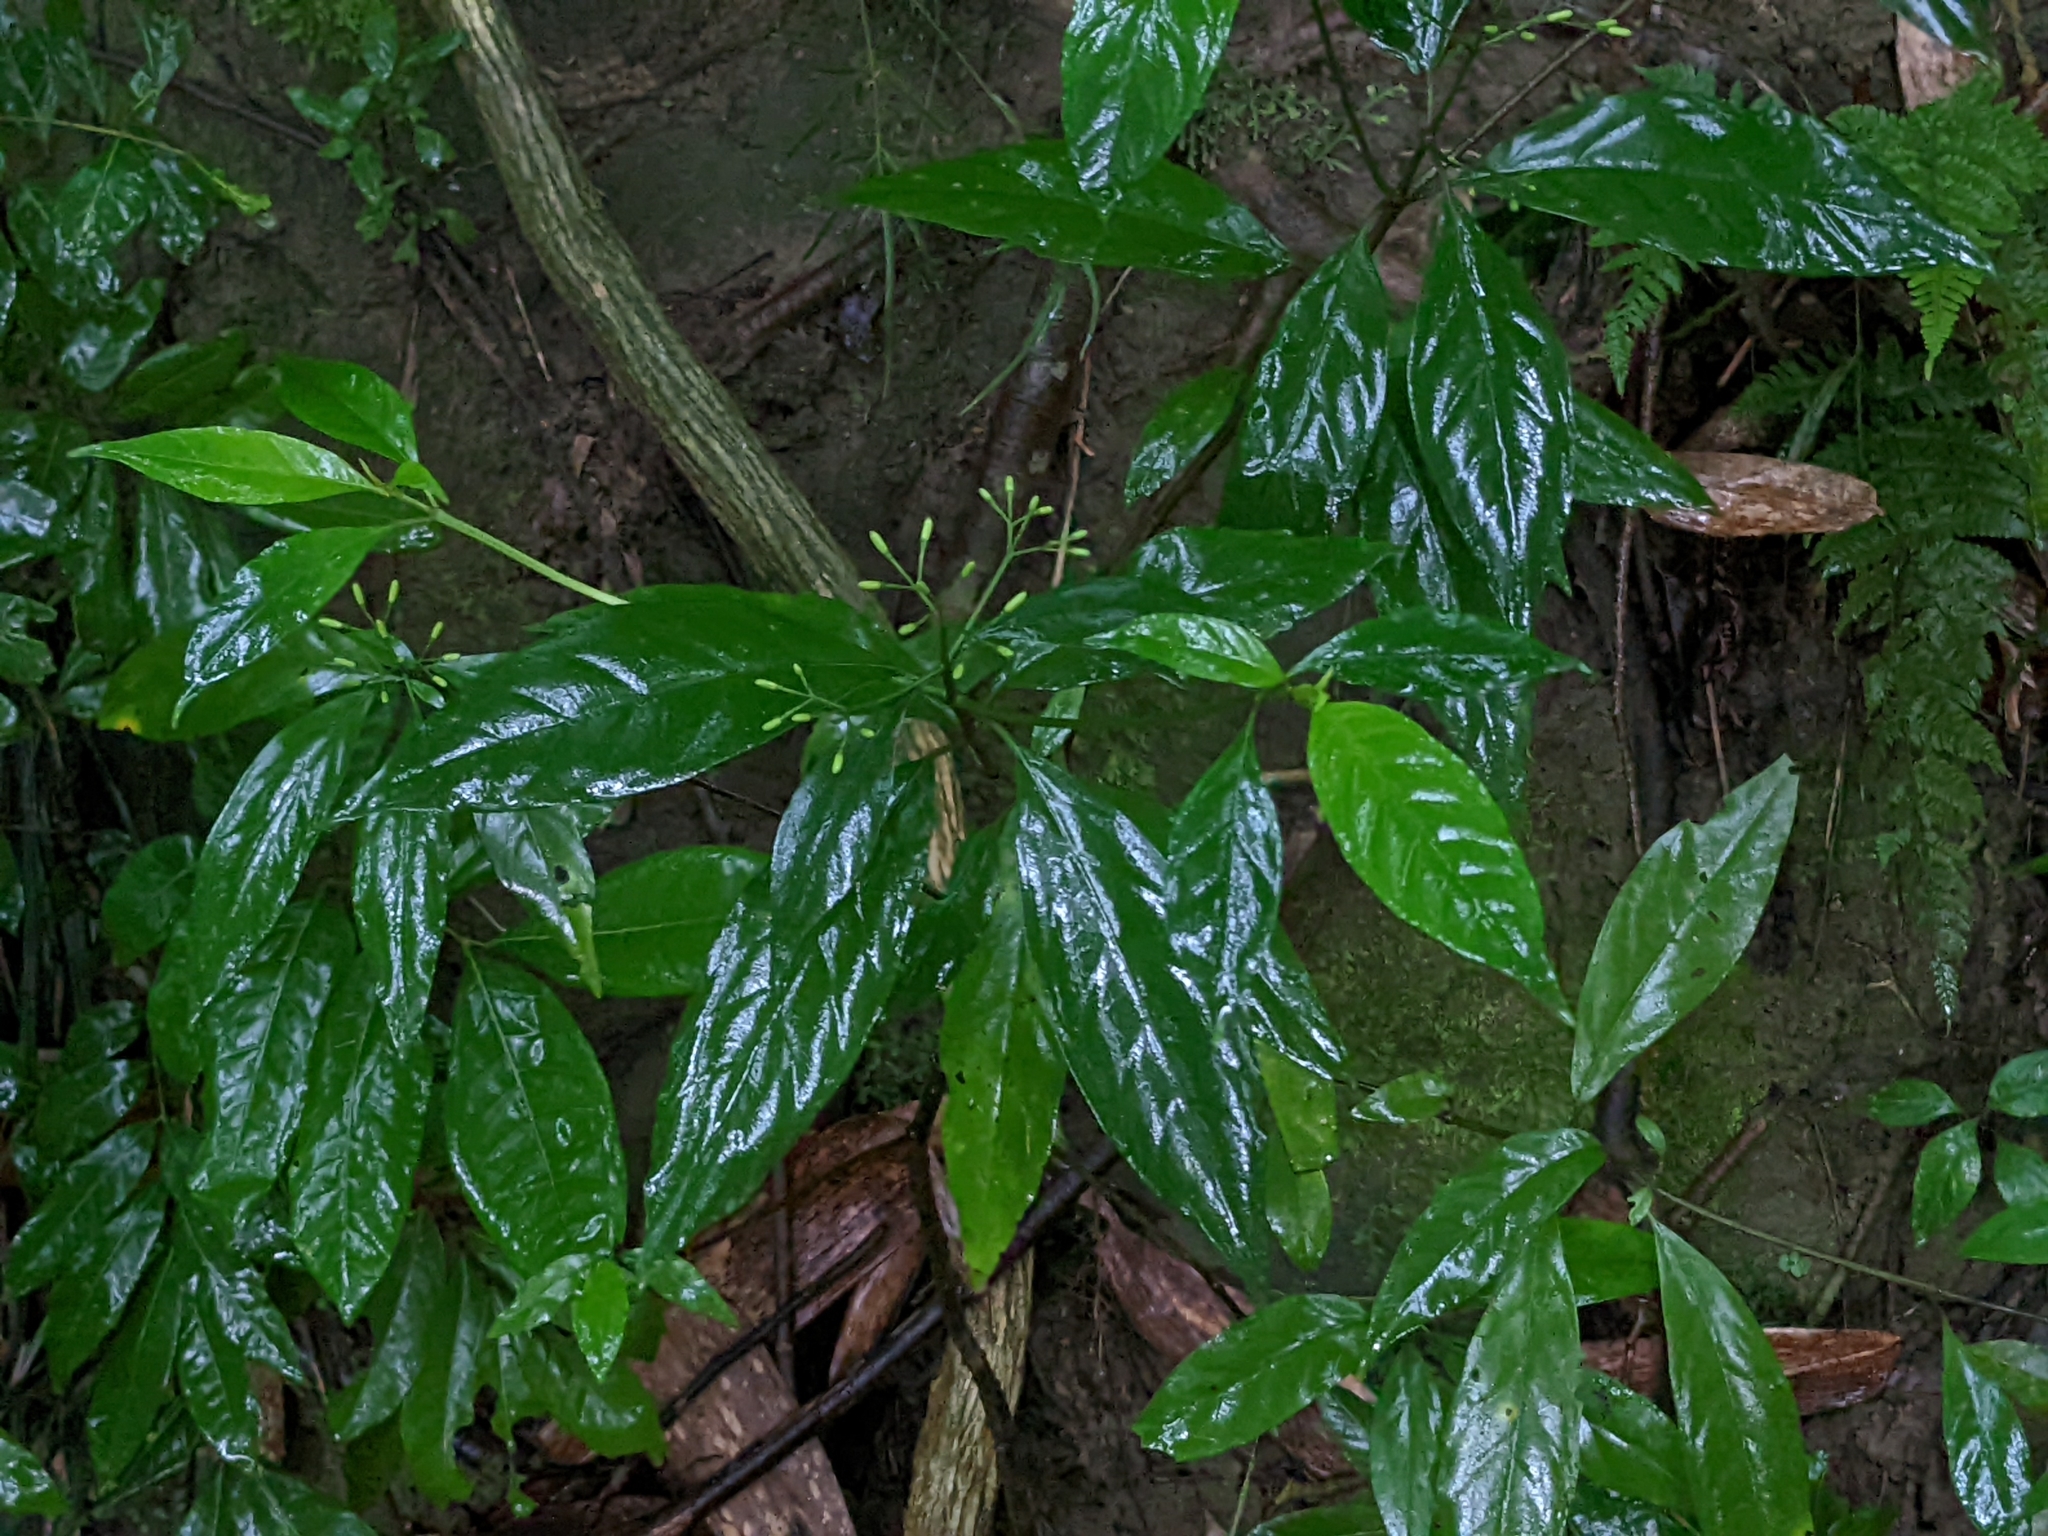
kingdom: Plantae
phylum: Tracheophyta
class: Magnoliopsida
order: Gentianales
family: Rubiaceae
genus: Tarenna
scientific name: Tarenna gracilipes
